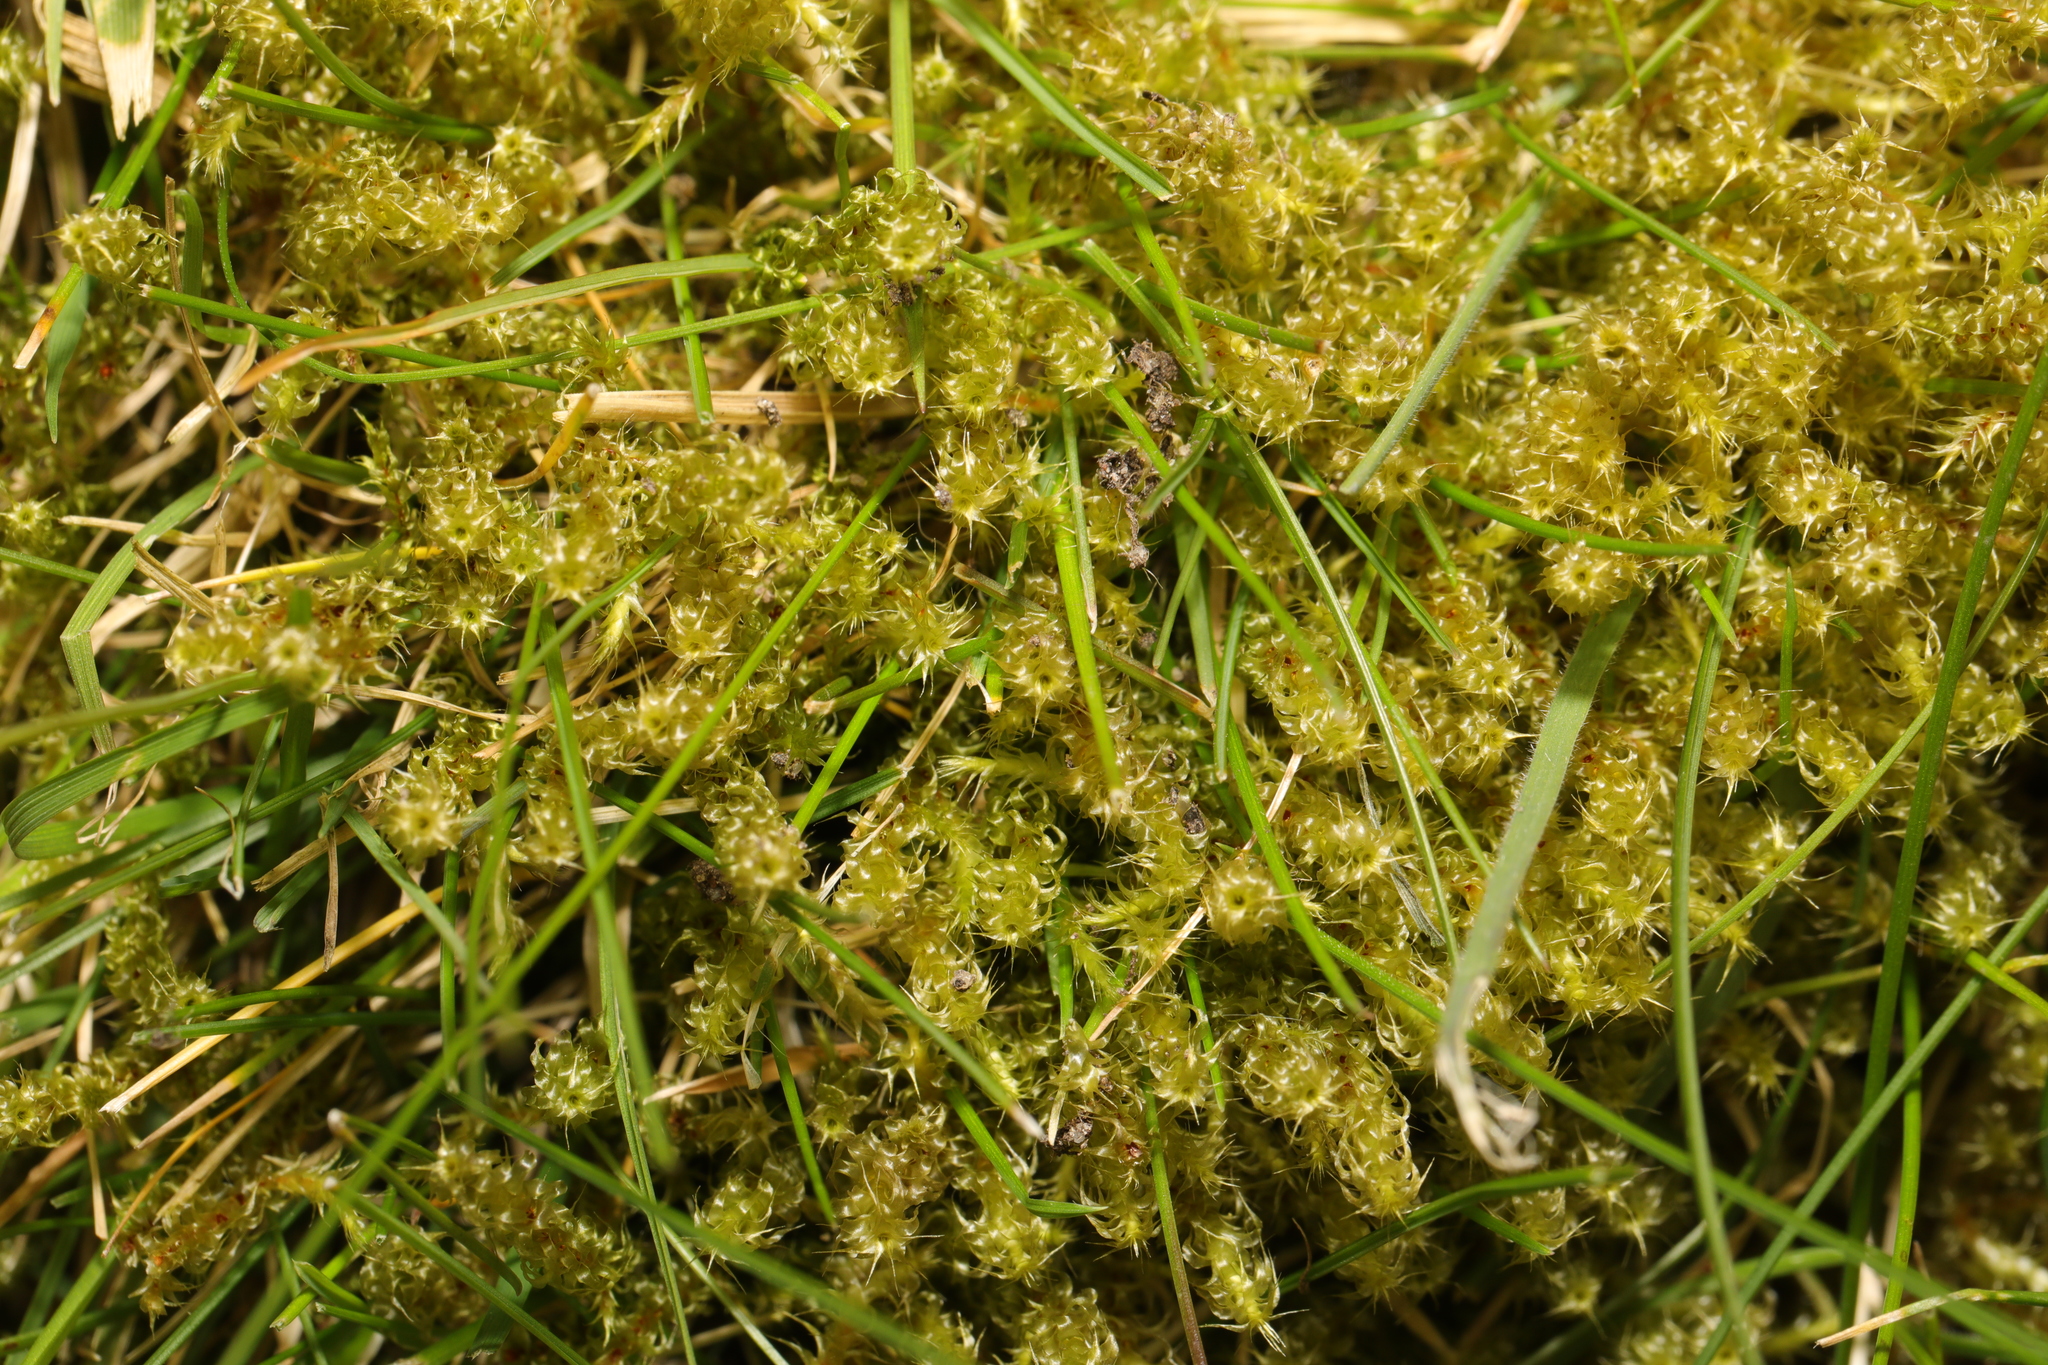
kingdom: Plantae
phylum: Bryophyta
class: Bryopsida
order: Hypnales
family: Hylocomiaceae
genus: Rhytidiadelphus
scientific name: Rhytidiadelphus squarrosus
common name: Springy turf-moss
